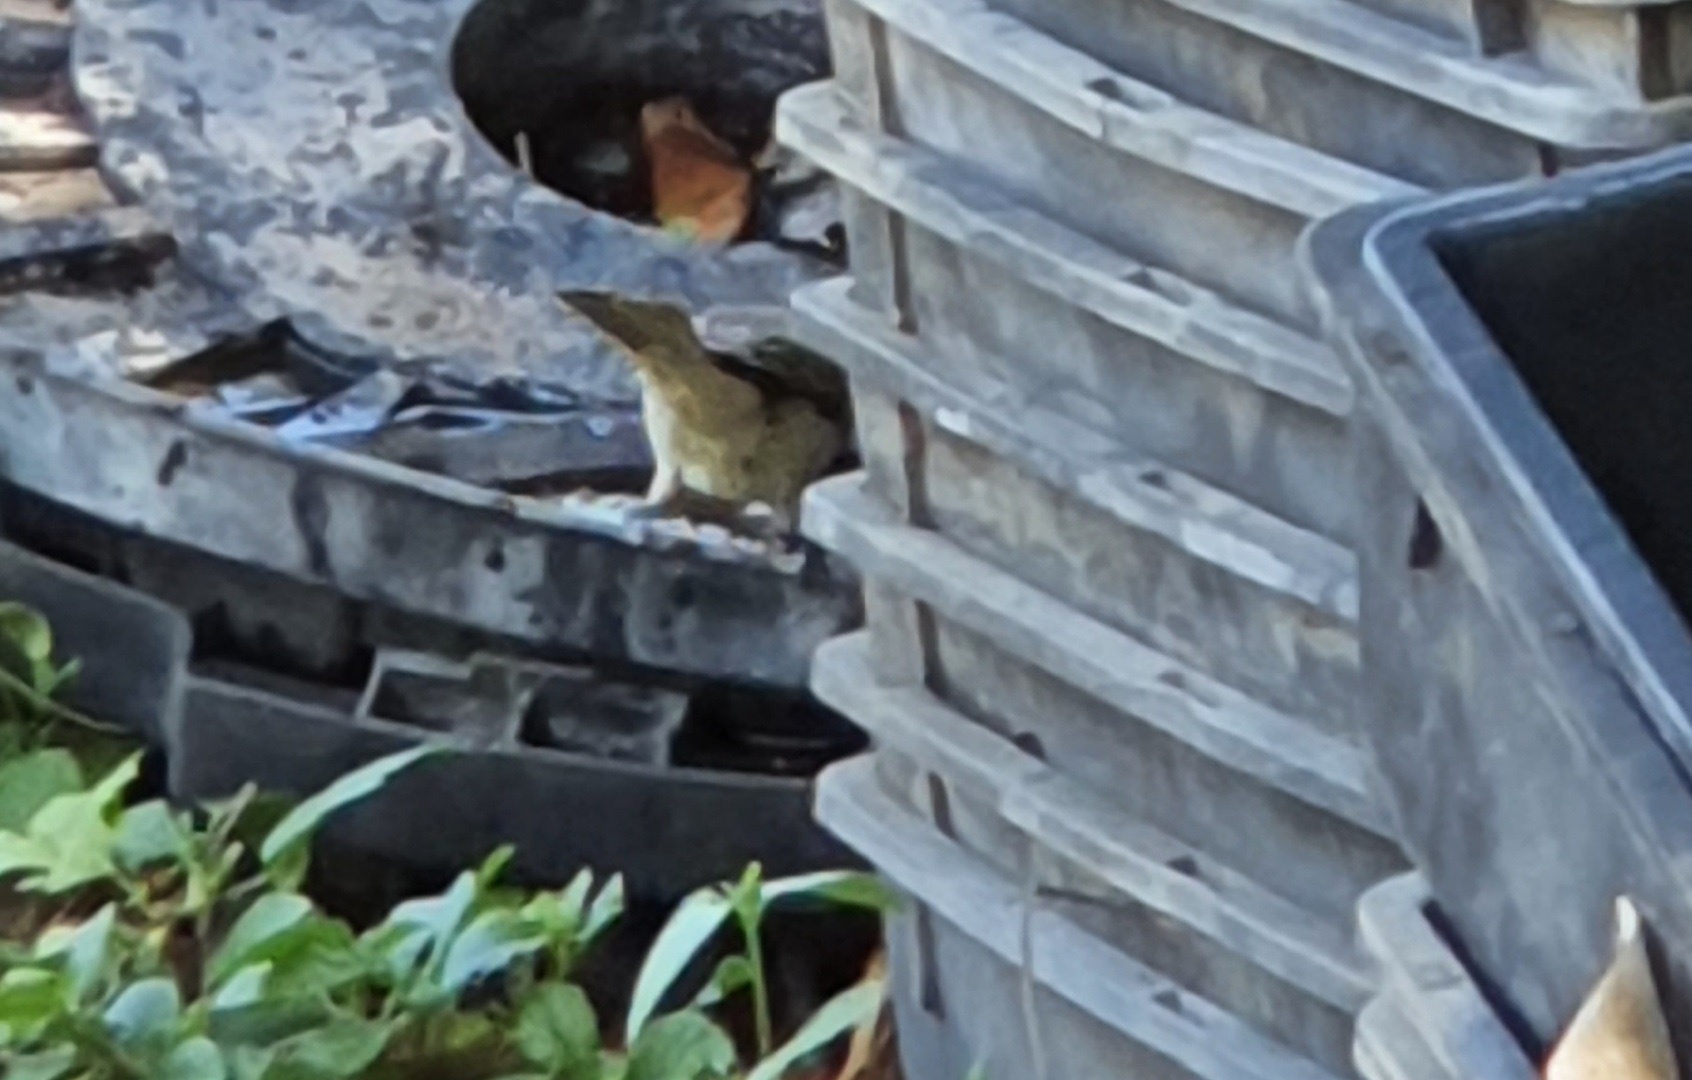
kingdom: Animalia
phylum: Chordata
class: Aves
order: Passeriformes
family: Meliphagidae
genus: Lichmera
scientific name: Lichmera indistincta
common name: Brown honeyeater
